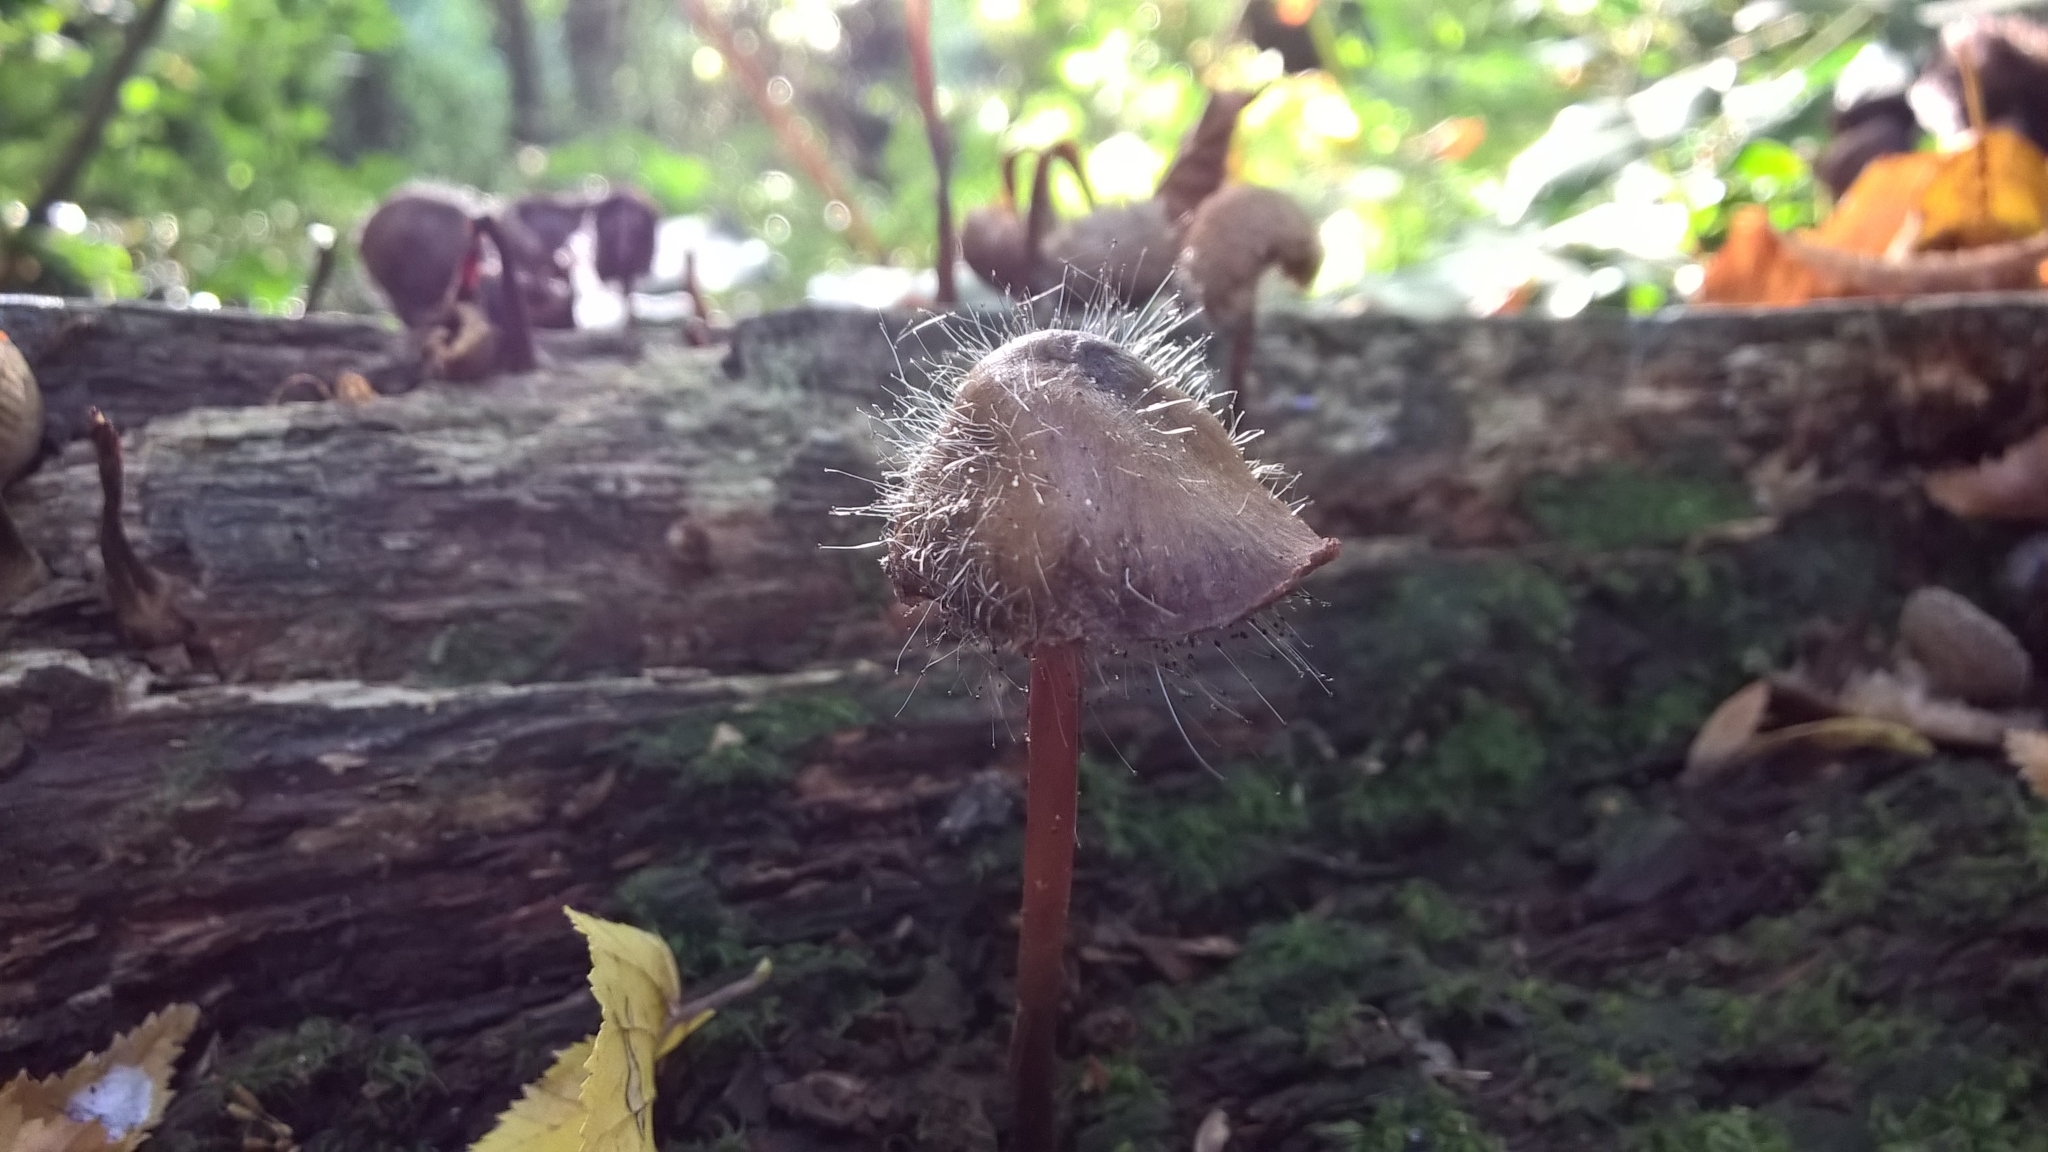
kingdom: Fungi
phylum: Mucoromycota
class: Mucoromycetes
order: Mucorales
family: Phycomycetaceae
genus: Spinellus
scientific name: Spinellus fusiger
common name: Bonnet mould
